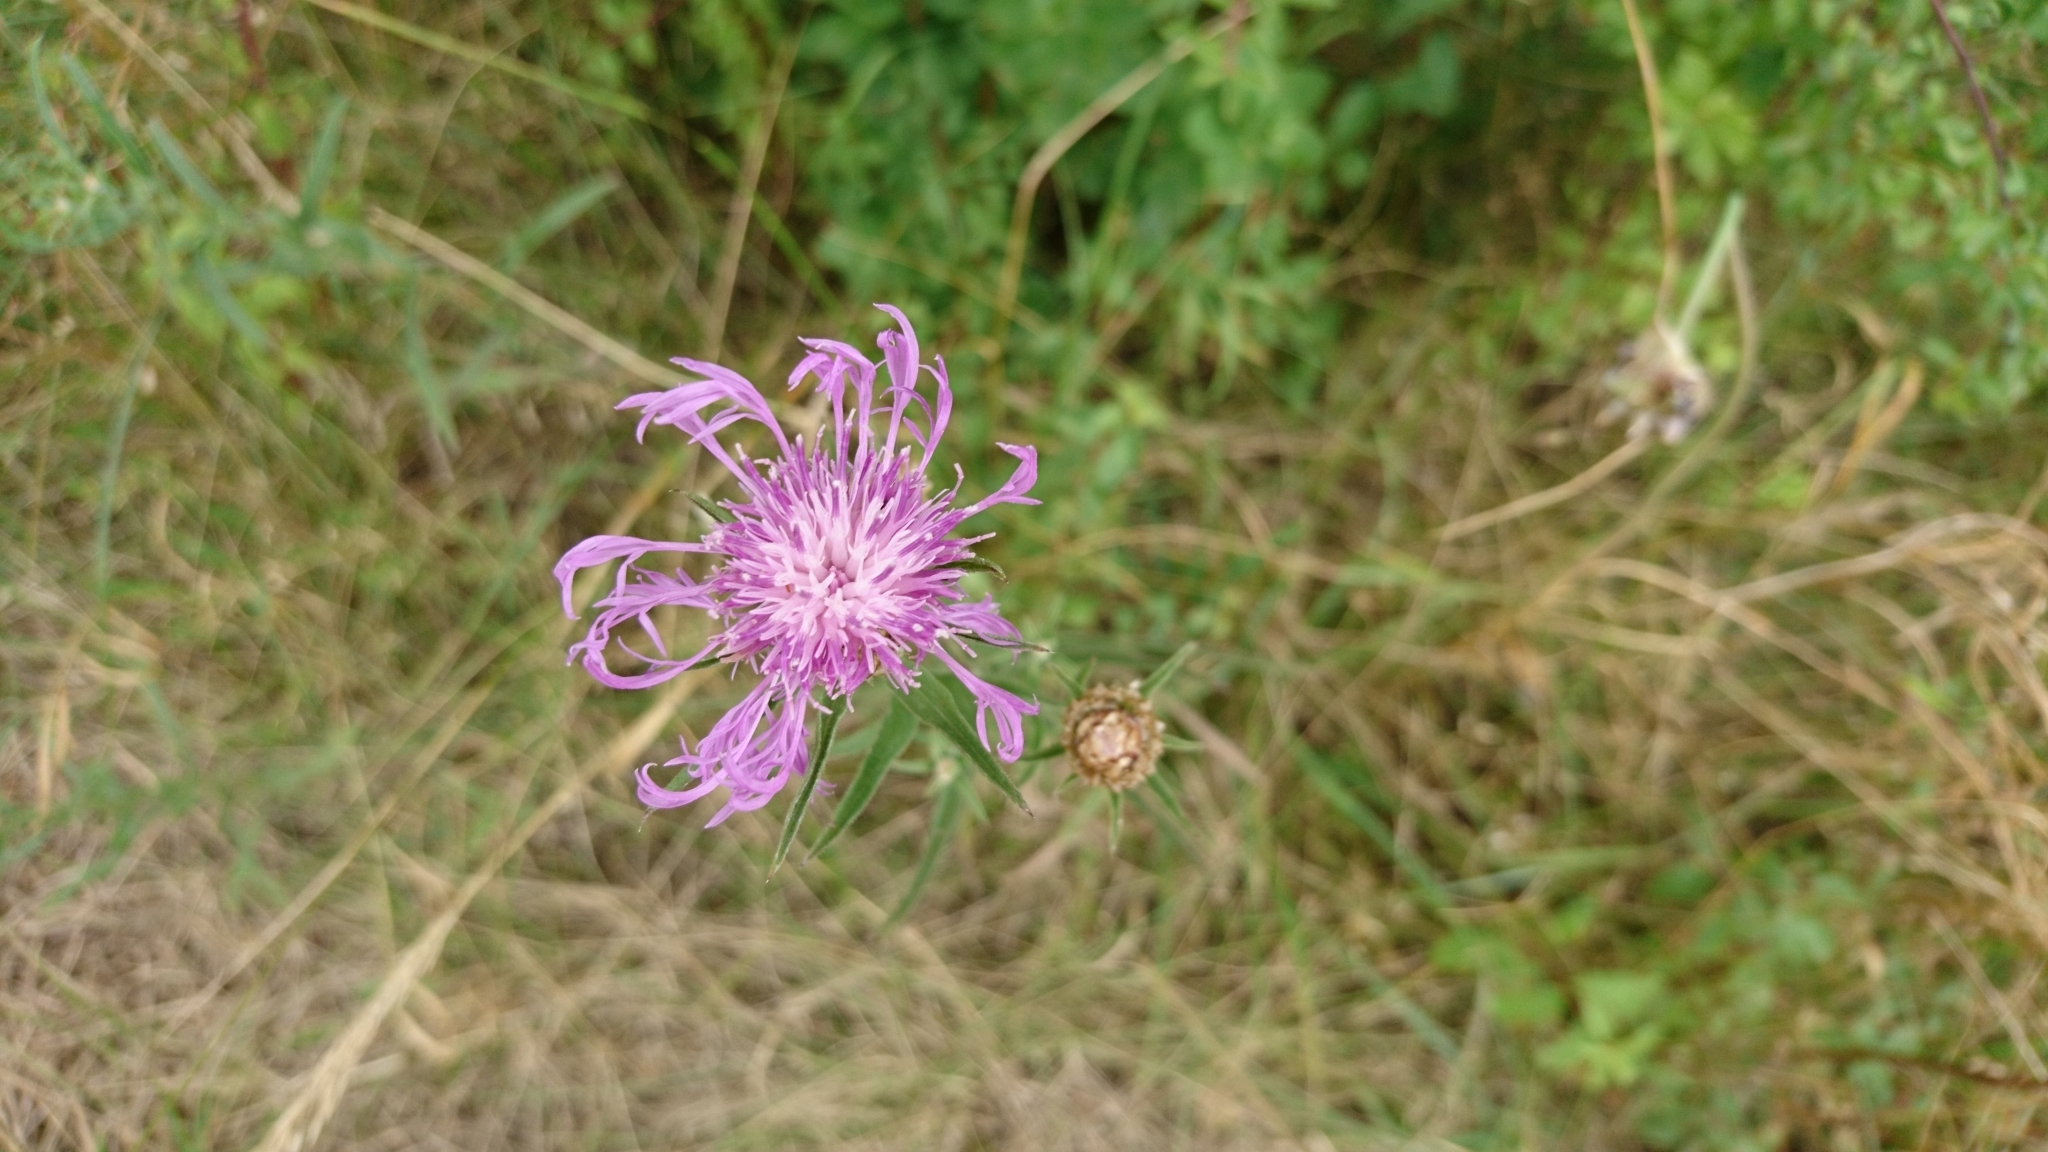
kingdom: Plantae
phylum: Tracheophyta
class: Magnoliopsida
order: Asterales
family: Asteraceae
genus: Centaurea
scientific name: Centaurea jacea
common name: Brown knapweed
